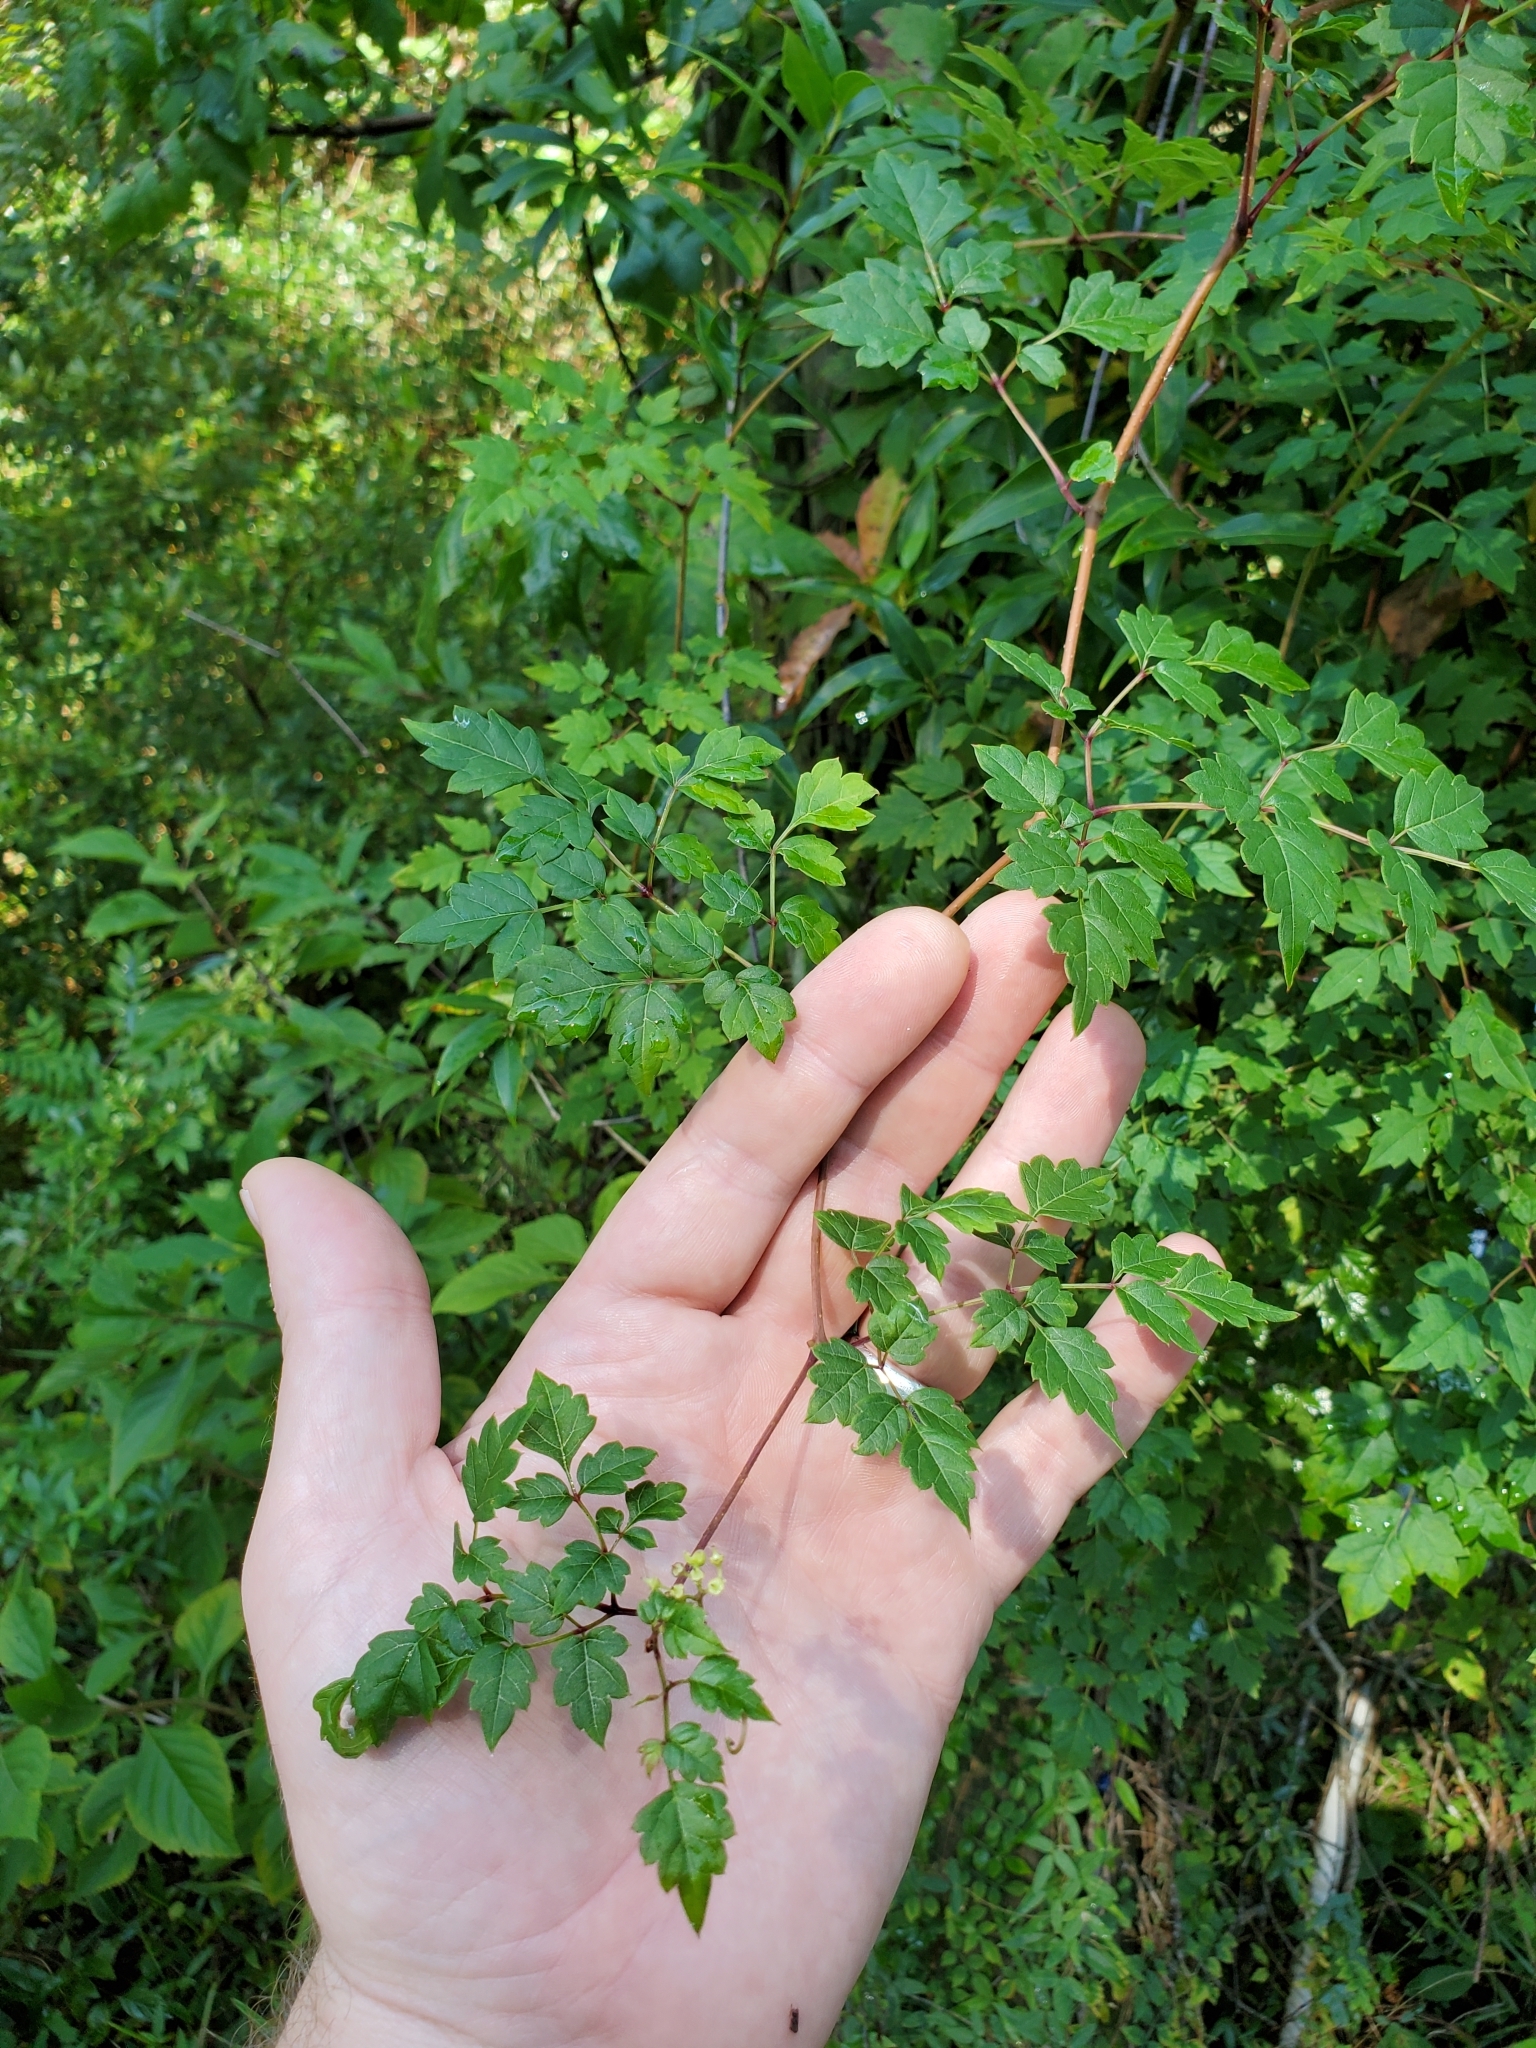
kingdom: Plantae
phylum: Tracheophyta
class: Magnoliopsida
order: Vitales
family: Vitaceae
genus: Nekemias
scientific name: Nekemias arborea
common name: Peppervine
